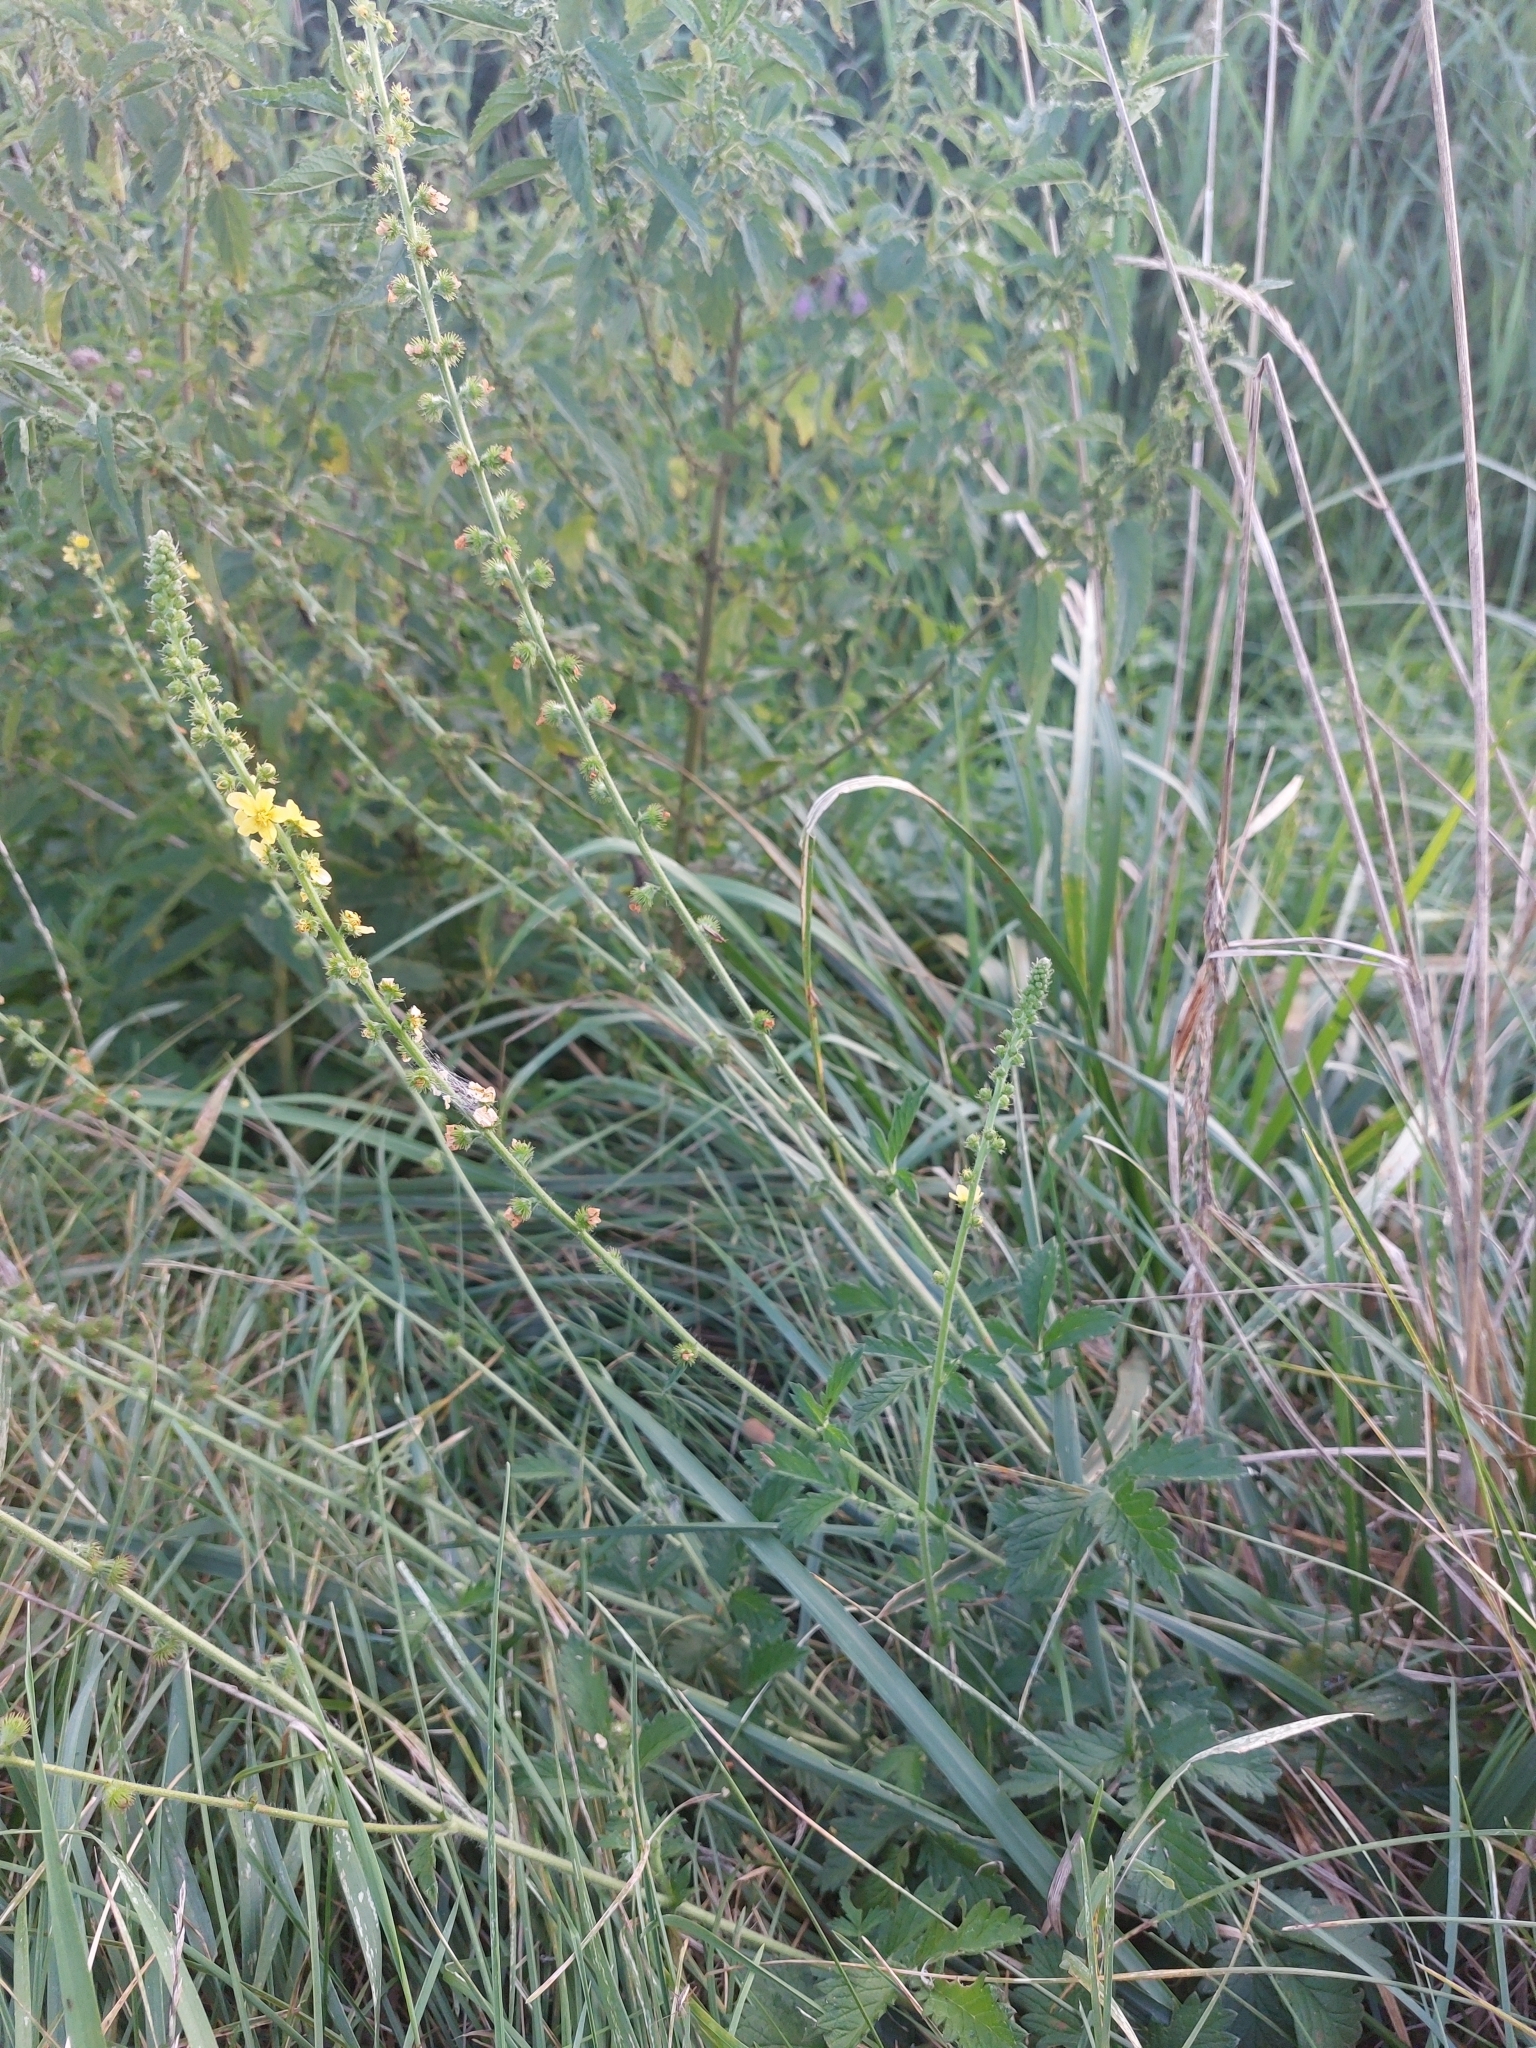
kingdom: Plantae
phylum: Tracheophyta
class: Magnoliopsida
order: Rosales
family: Rosaceae
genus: Agrimonia
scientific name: Agrimonia eupatoria
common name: Agrimony
